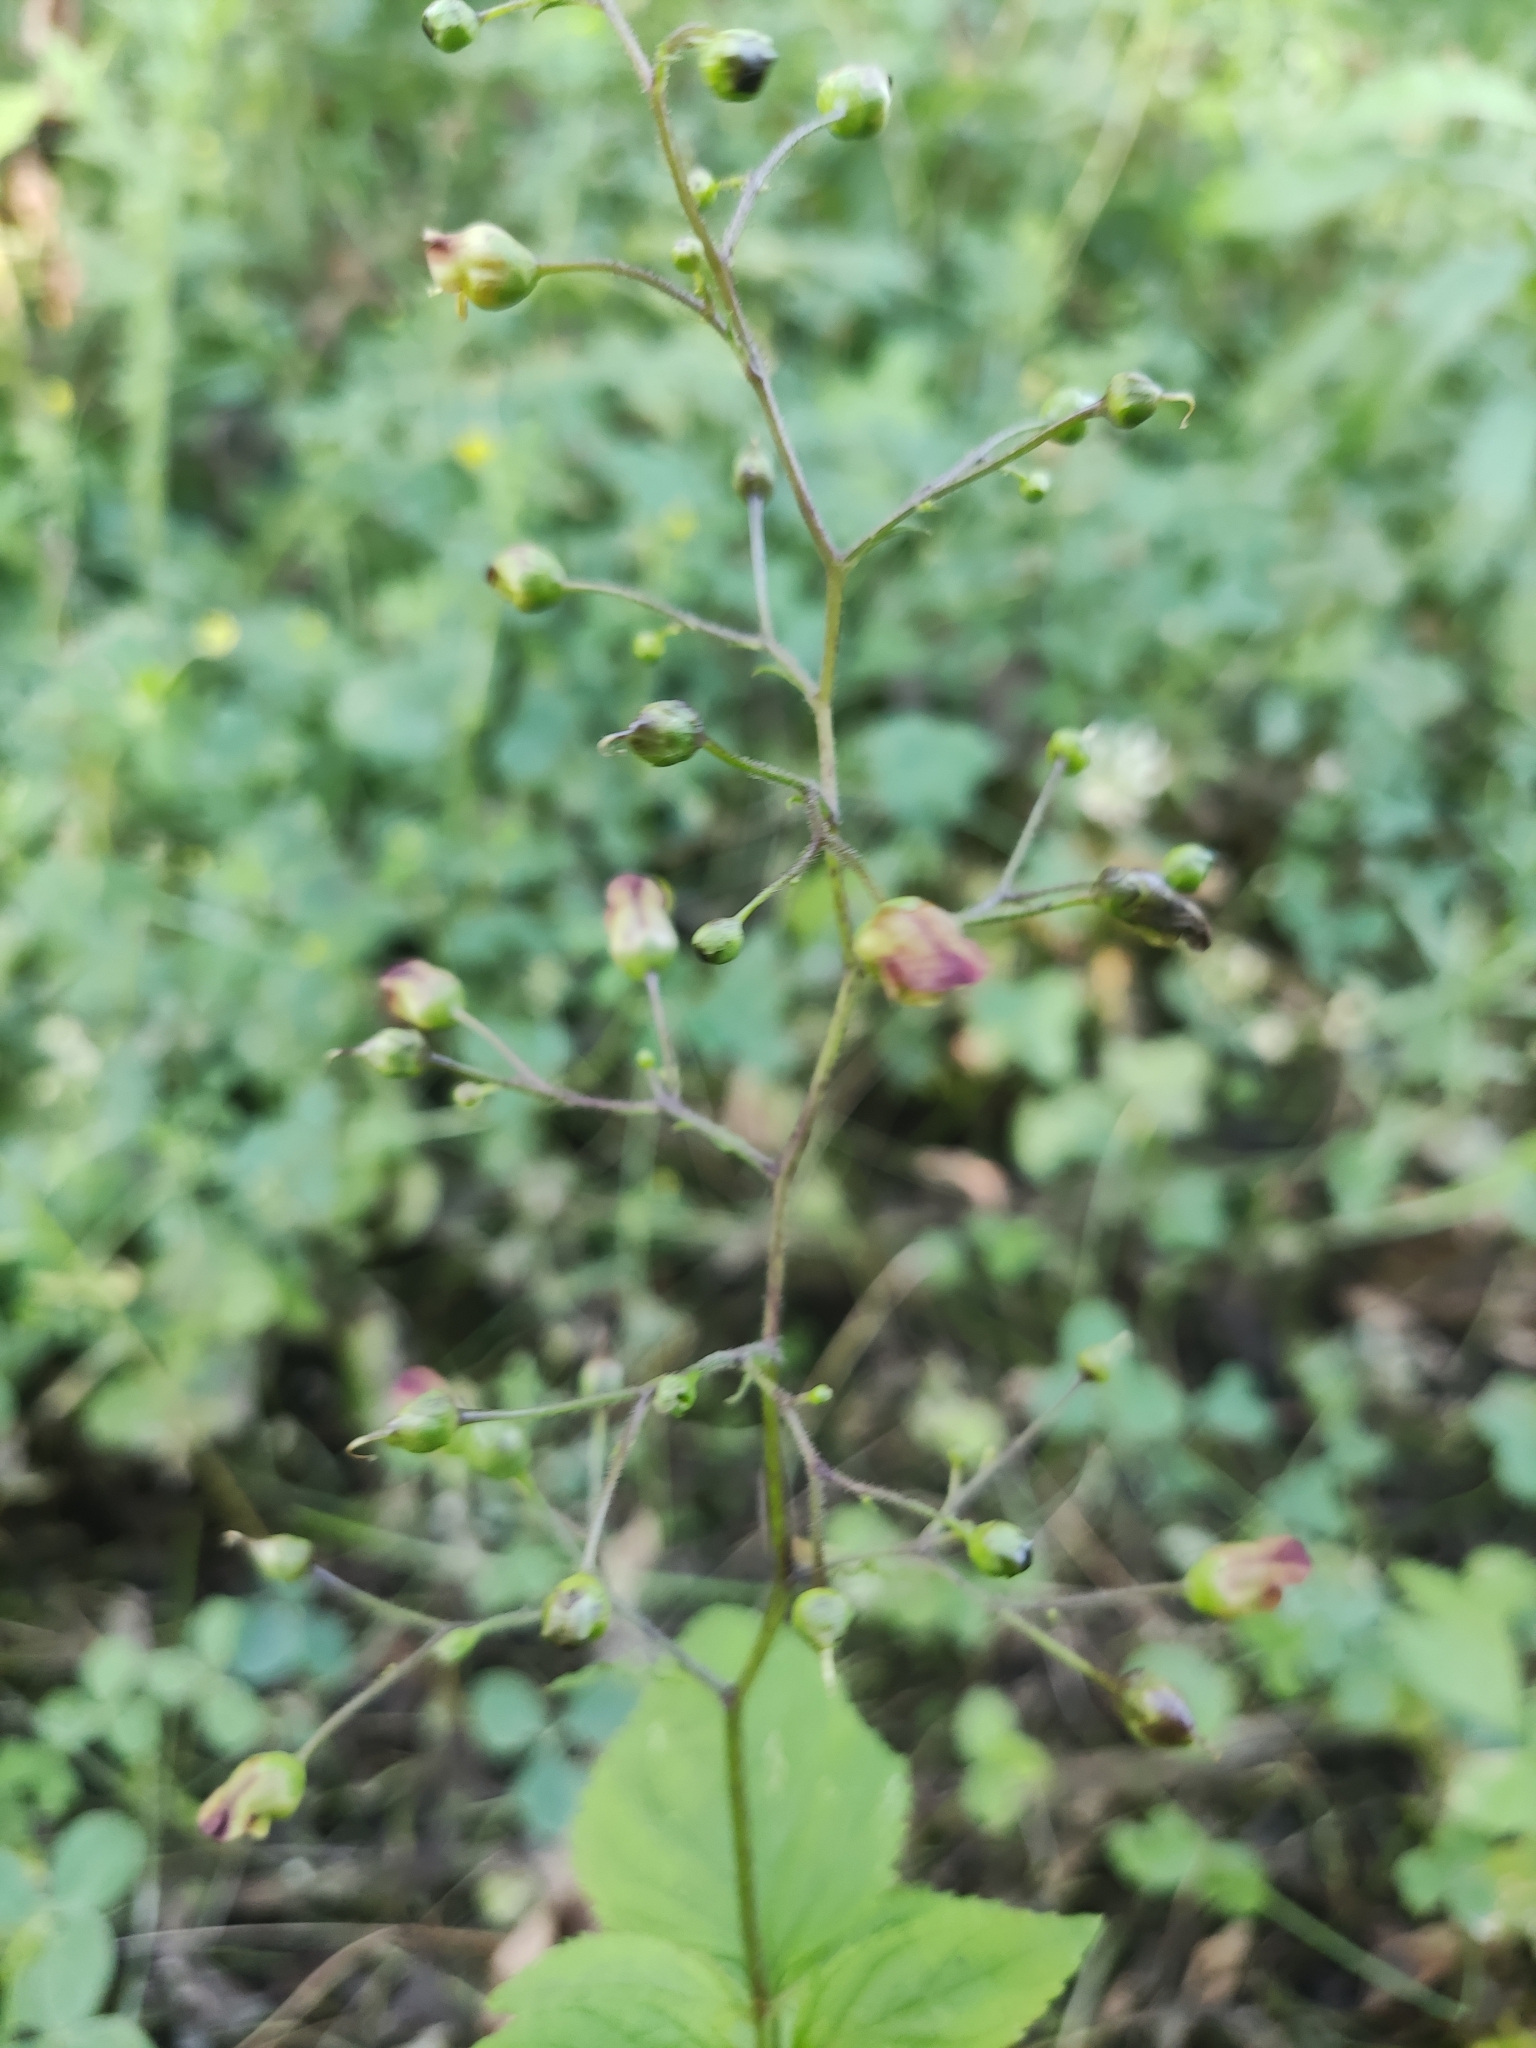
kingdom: Plantae
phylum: Tracheophyta
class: Magnoliopsida
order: Lamiales
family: Scrophulariaceae
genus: Scrophularia
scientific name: Scrophularia nodosa
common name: Common figwort
